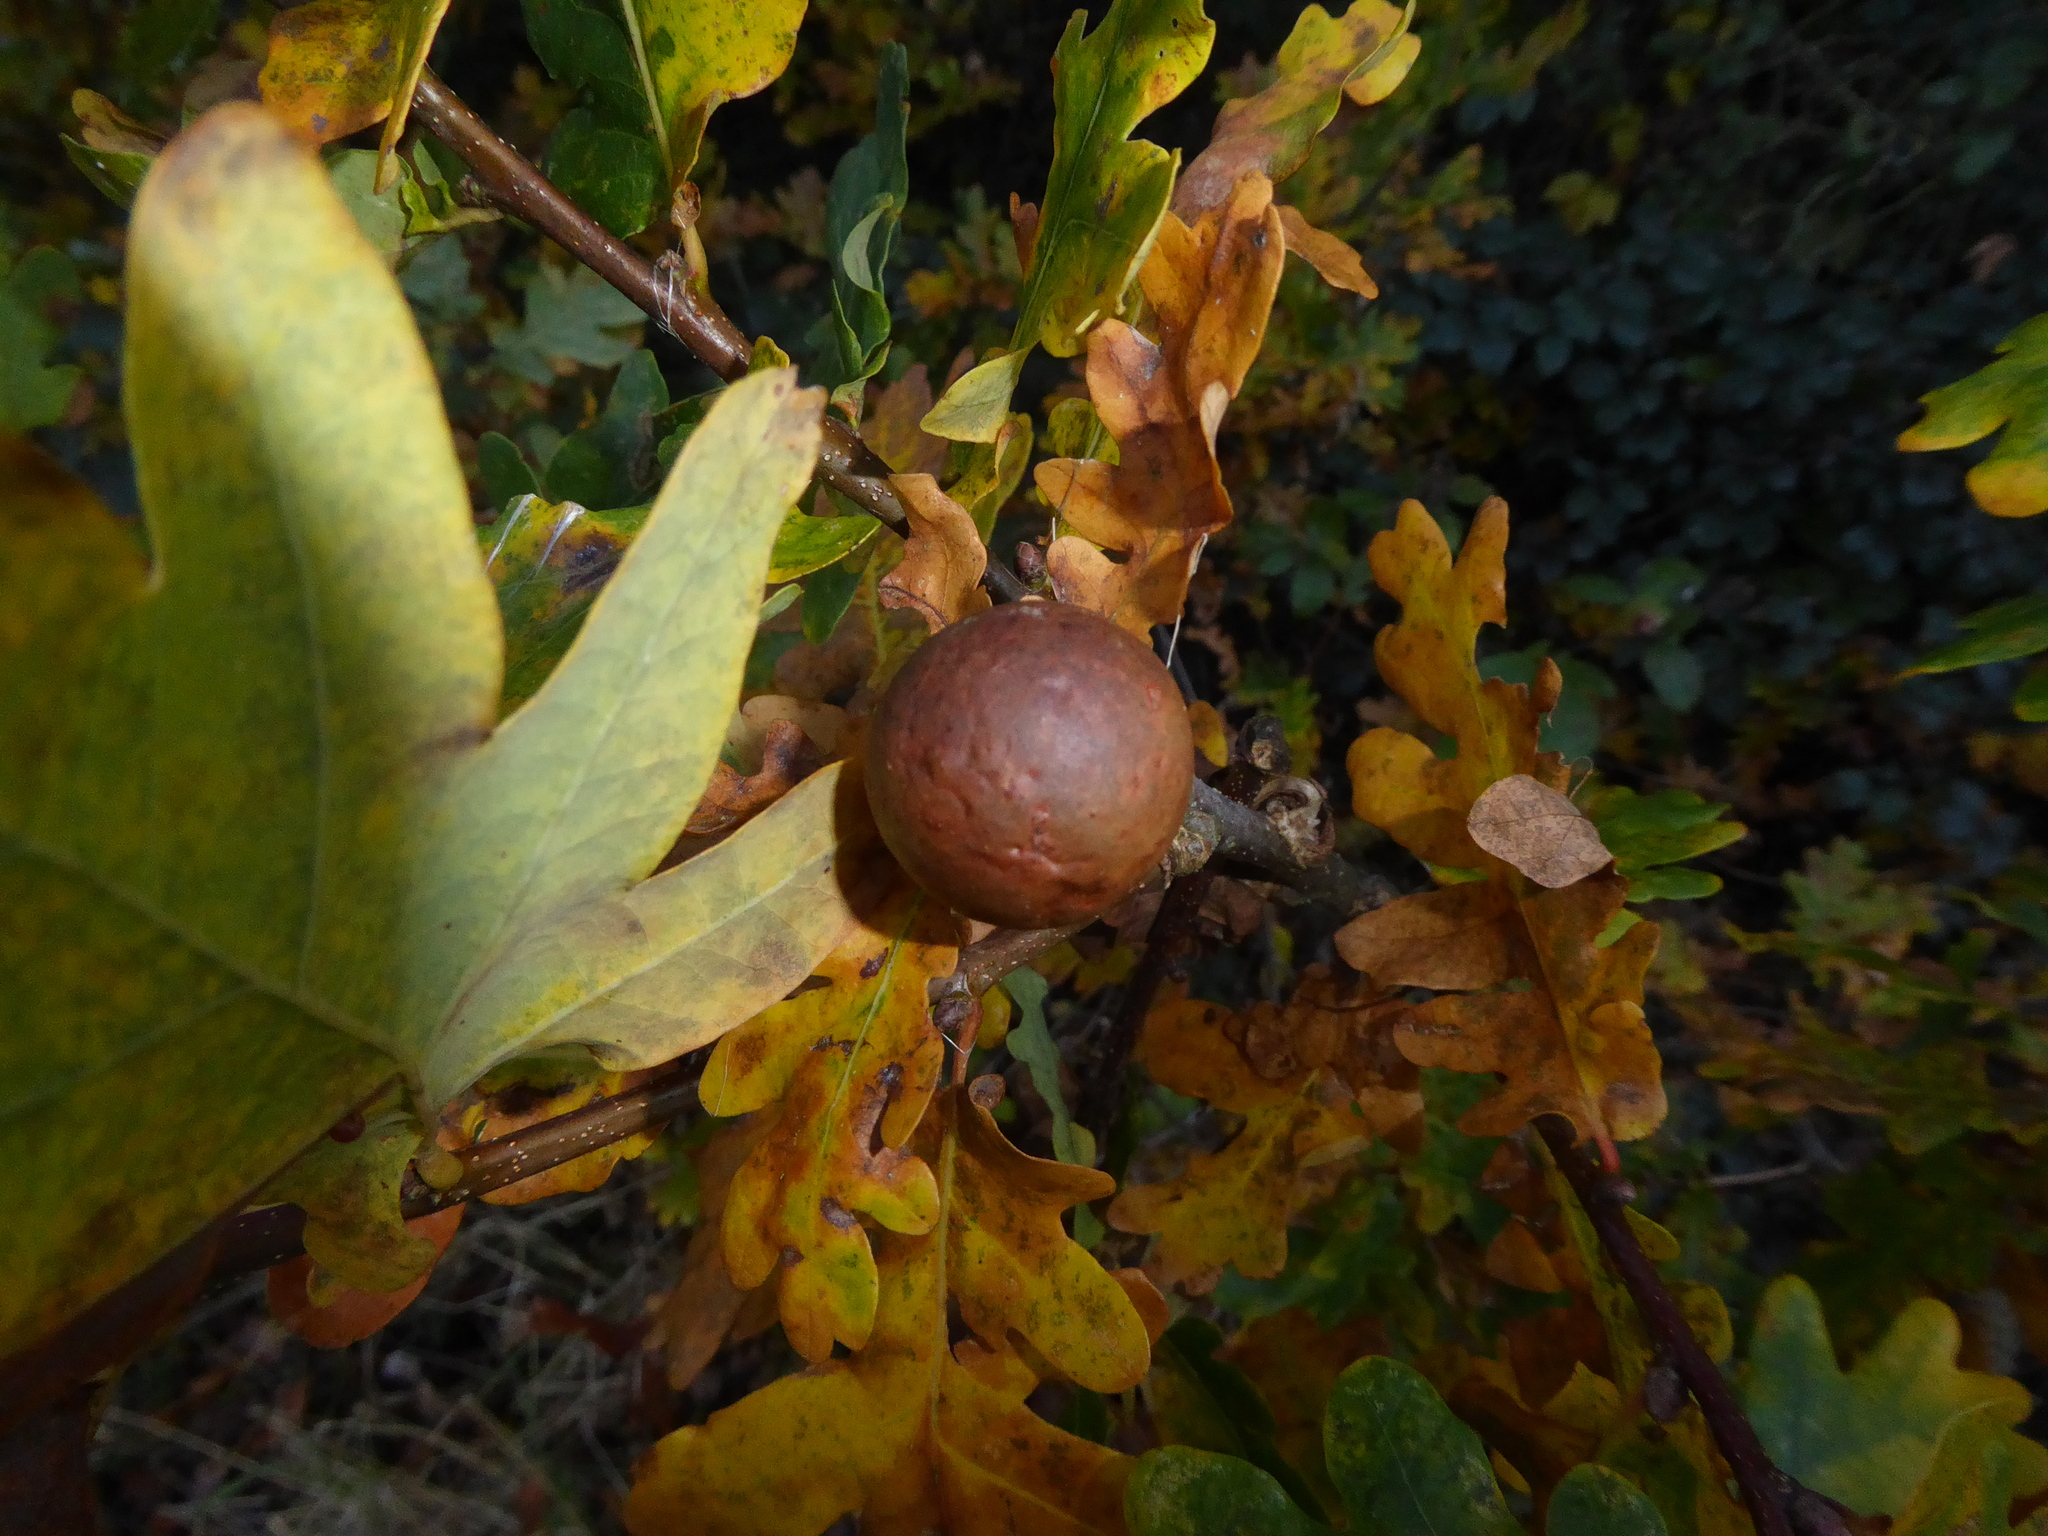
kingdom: Animalia
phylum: Arthropoda
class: Insecta
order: Hymenoptera
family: Cynipidae
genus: Andricus
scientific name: Andricus kollari
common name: Marble gall
